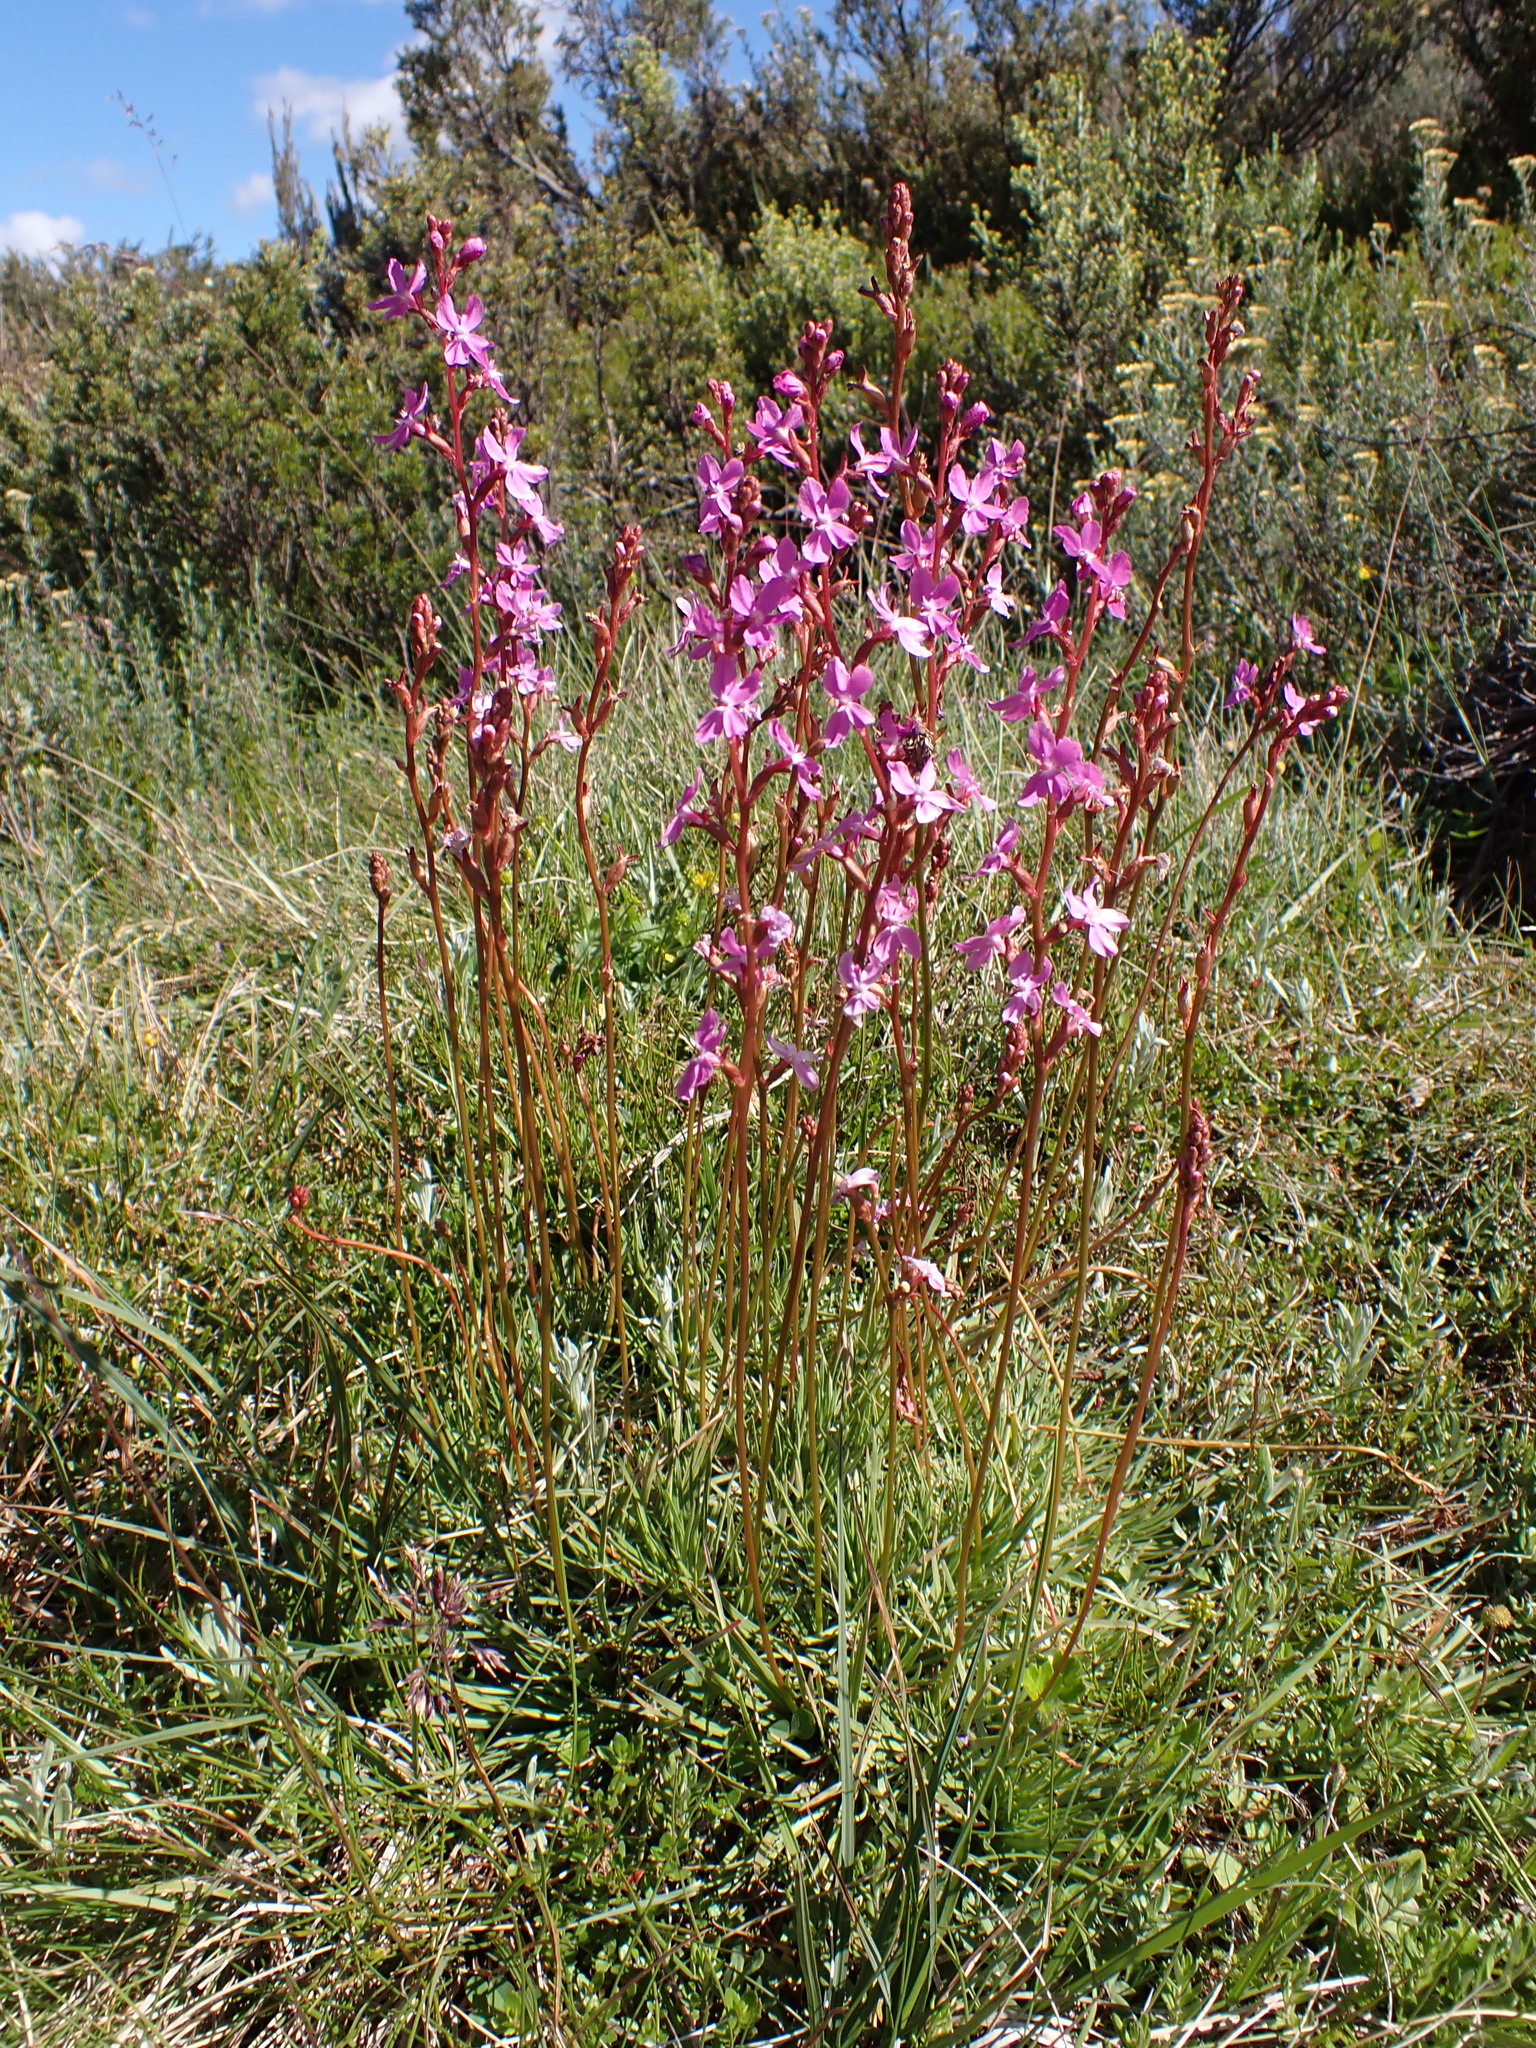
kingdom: Plantae
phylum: Tracheophyta
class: Magnoliopsida
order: Asterales
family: Stylidiaceae
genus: Stylidium
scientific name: Stylidium montanum
